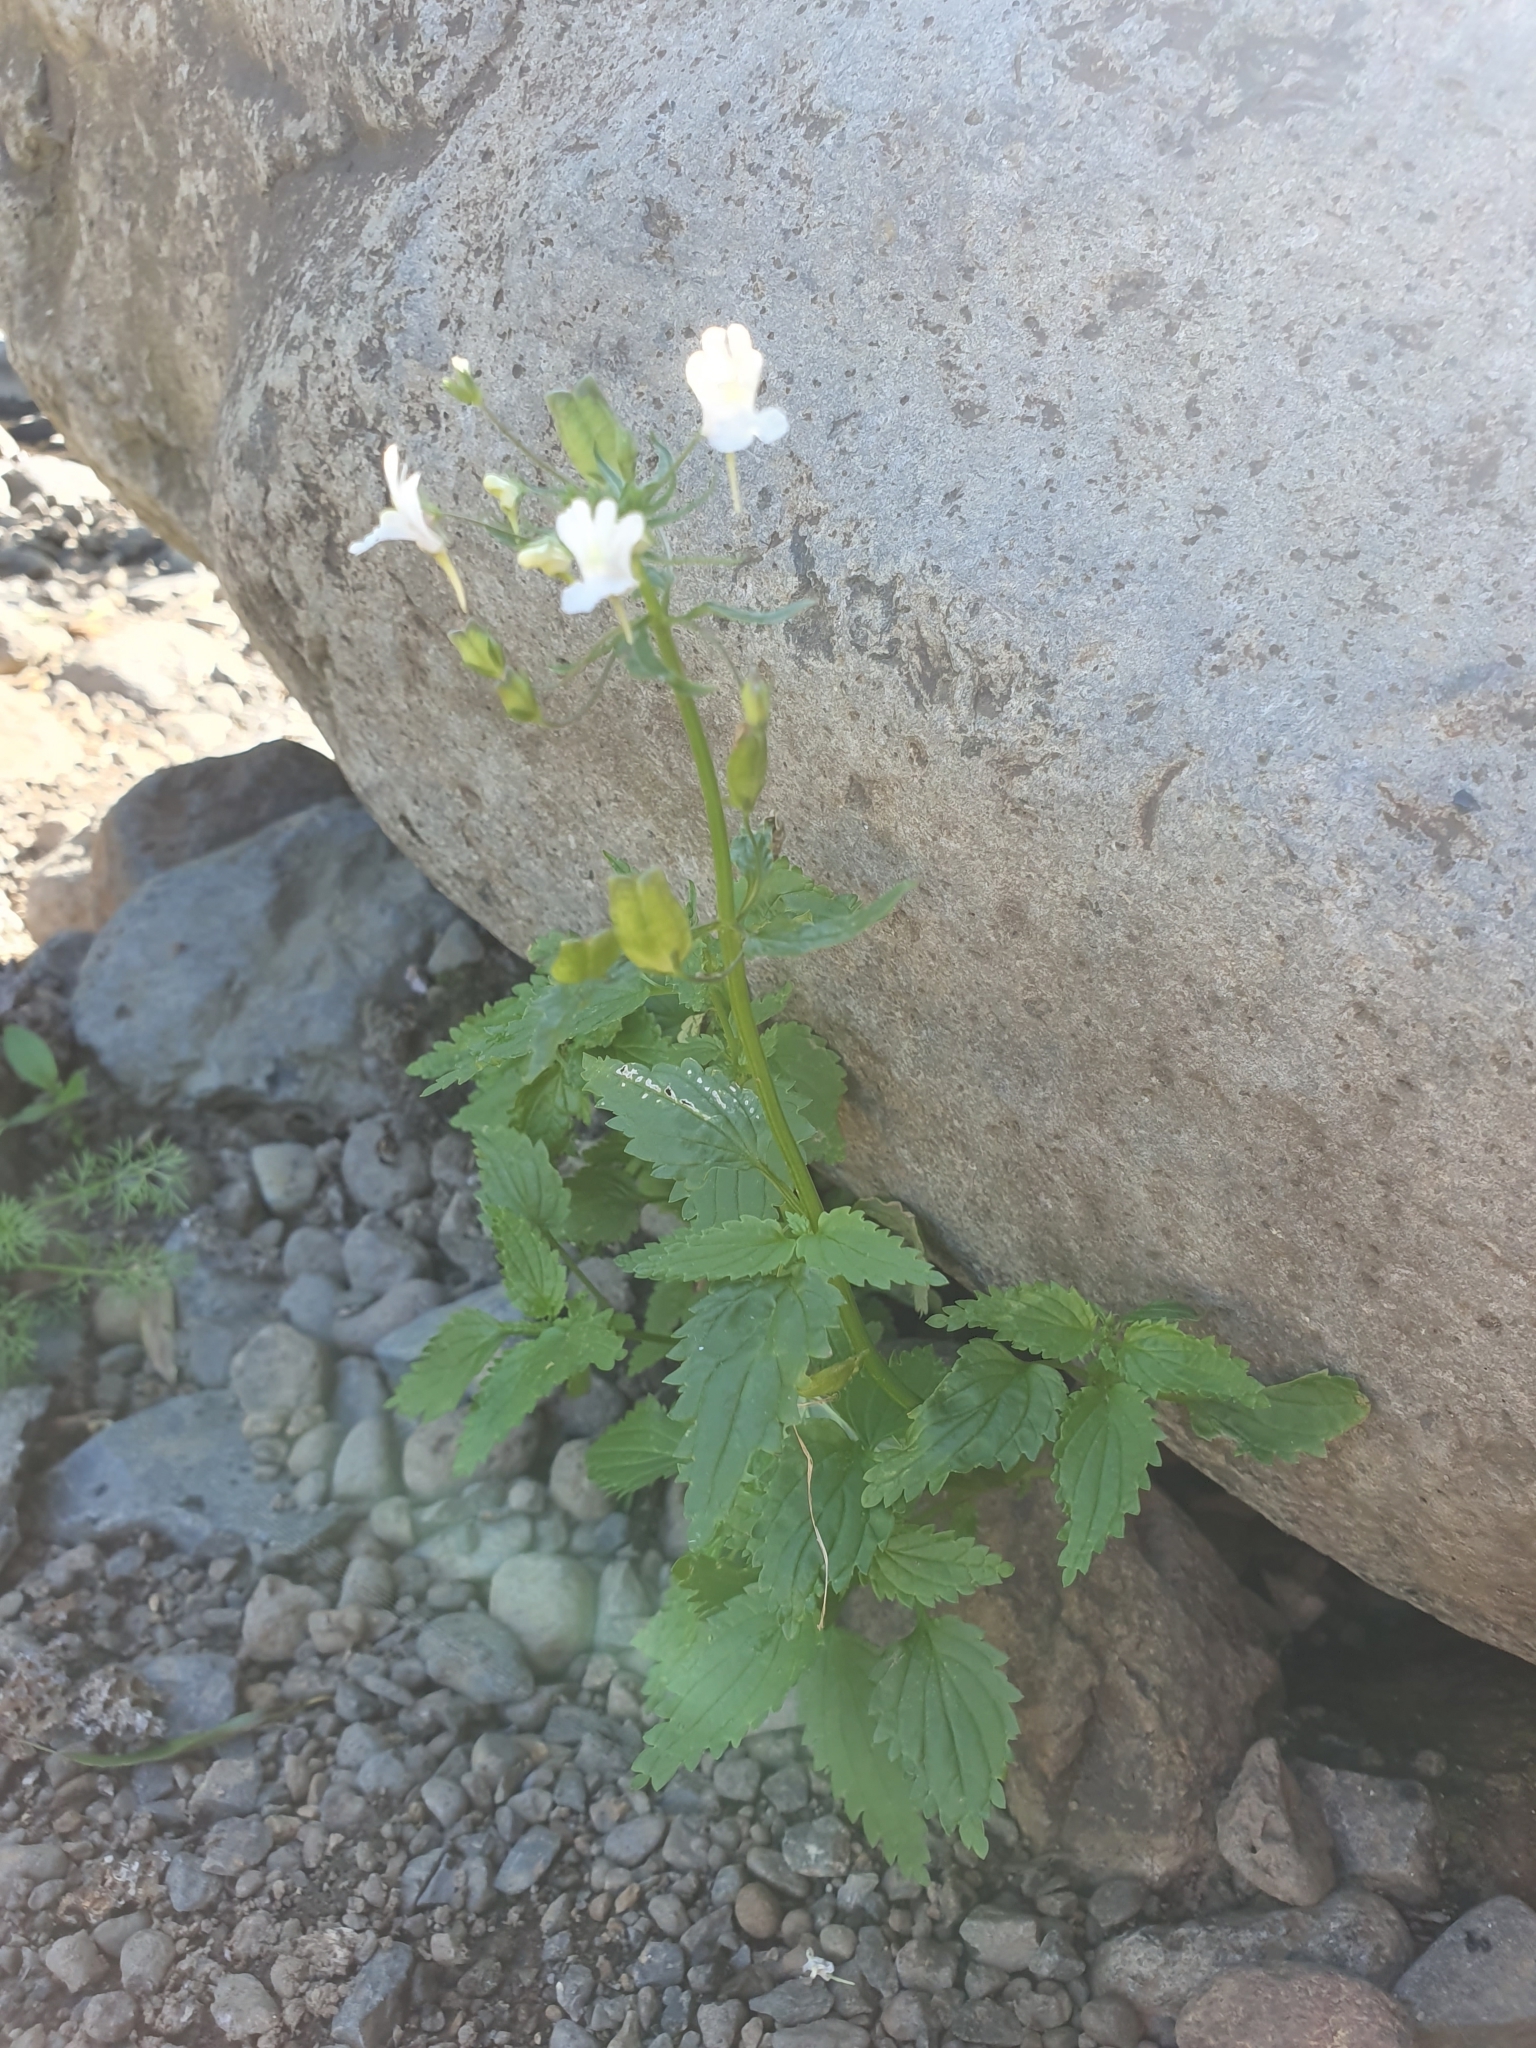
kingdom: Plantae
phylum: Tracheophyta
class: Magnoliopsida
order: Lamiales
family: Scrophulariaceae
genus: Nemesia
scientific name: Nemesia floribunda
